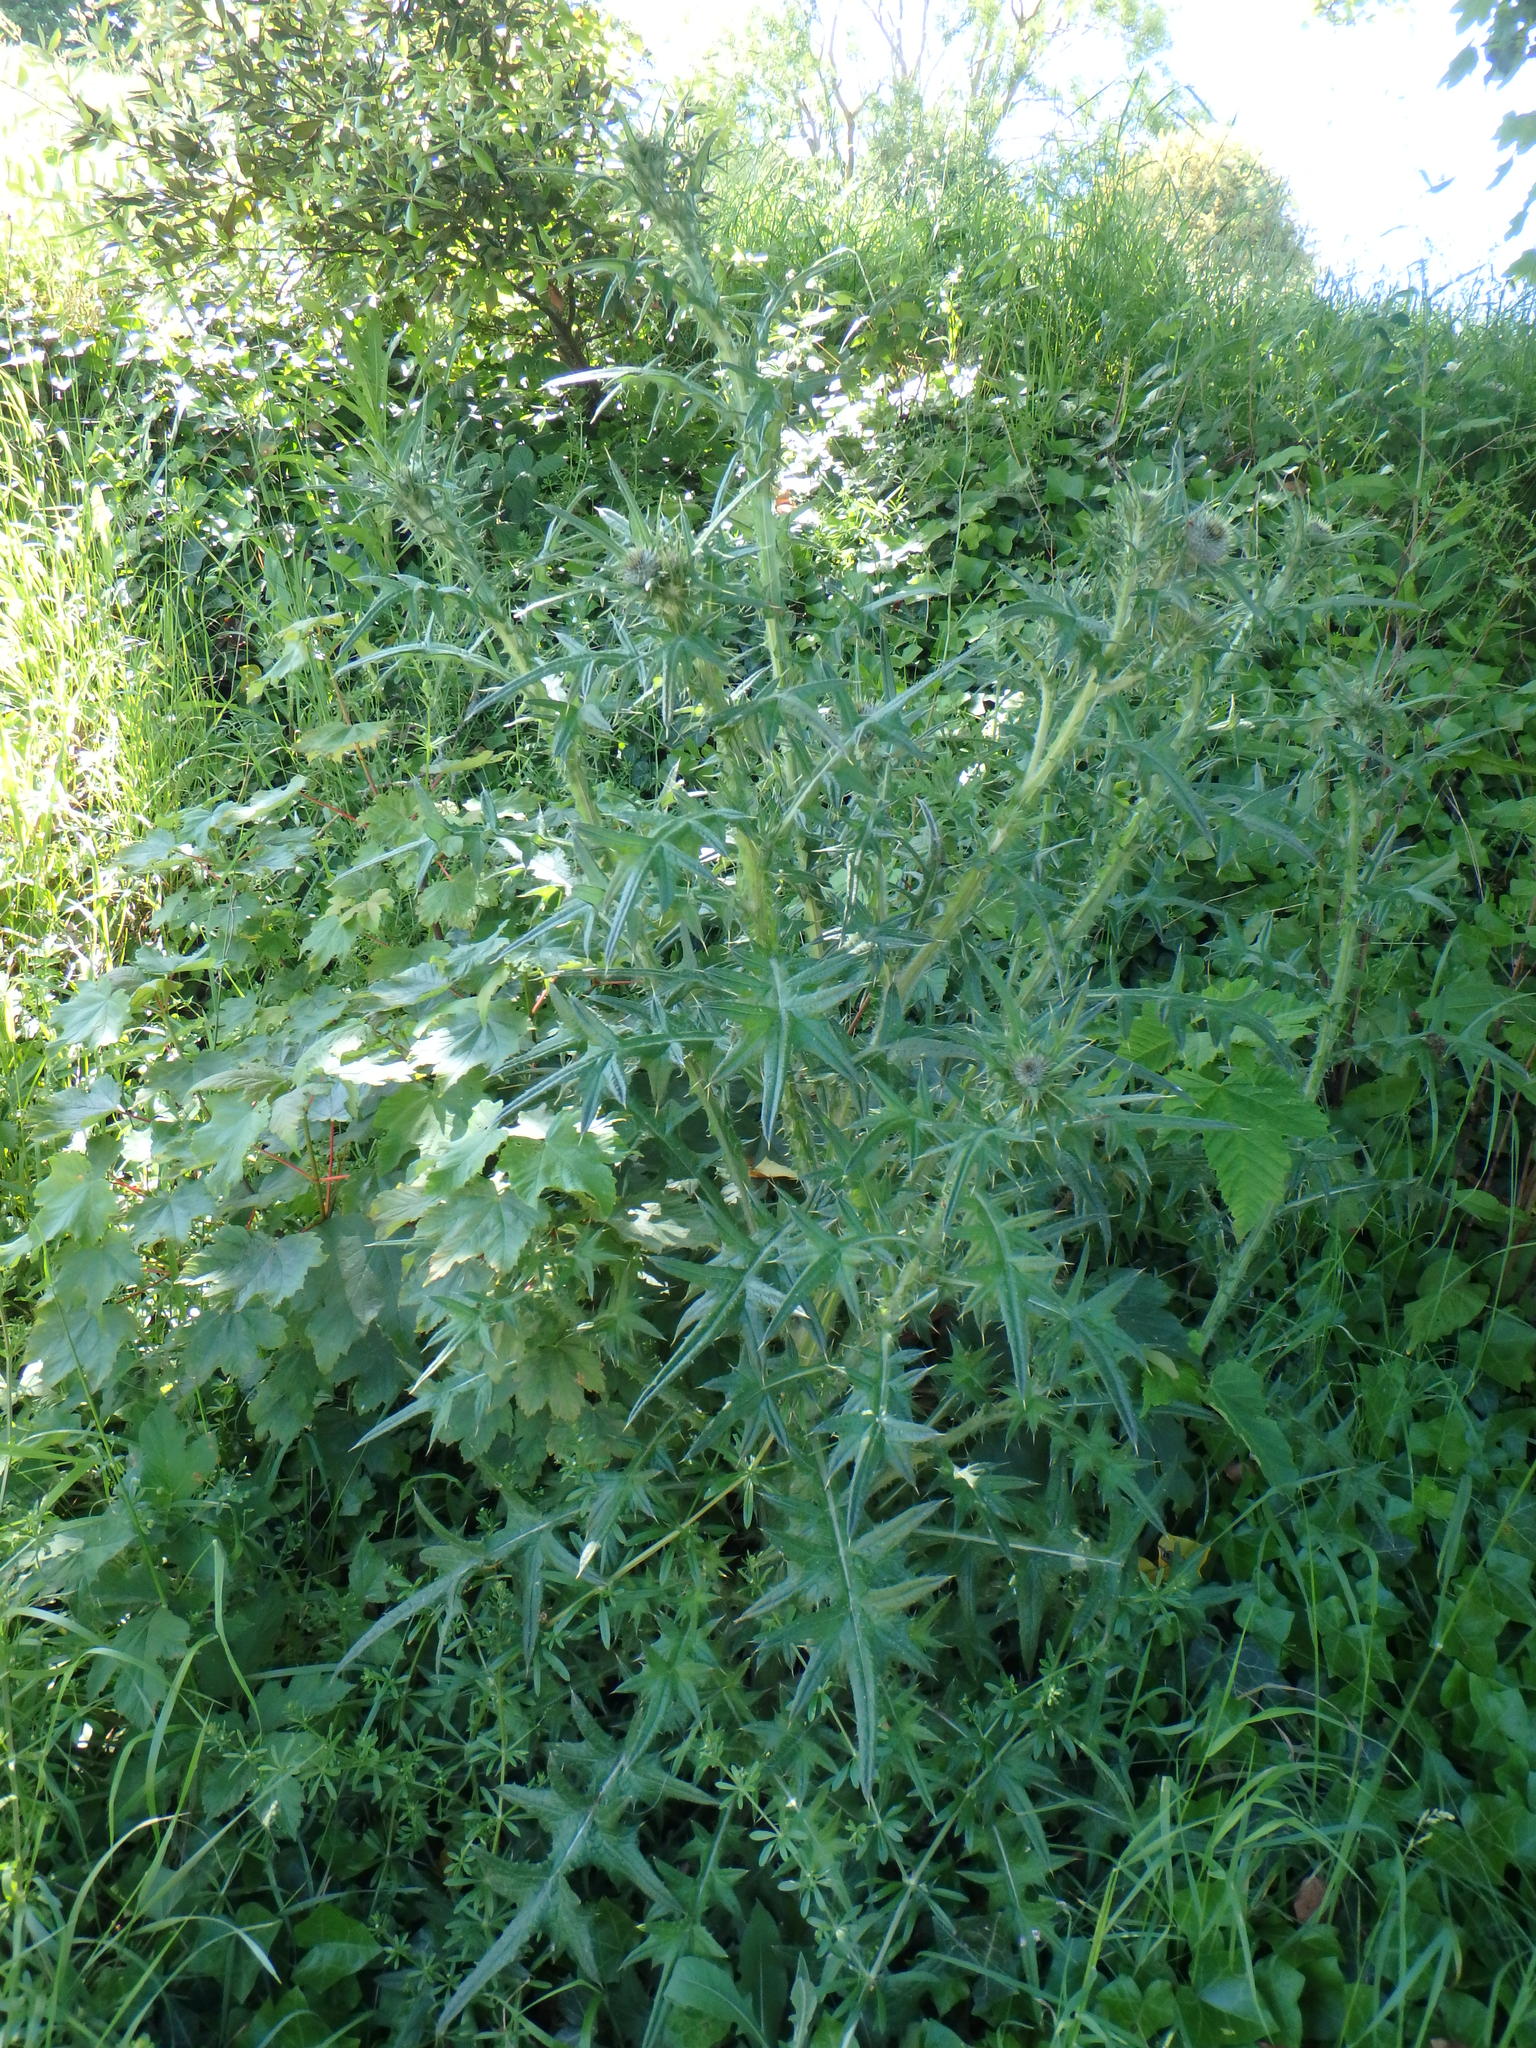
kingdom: Plantae
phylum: Tracheophyta
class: Magnoliopsida
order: Asterales
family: Asteraceae
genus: Cirsium
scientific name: Cirsium vulgare
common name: Bull thistle
